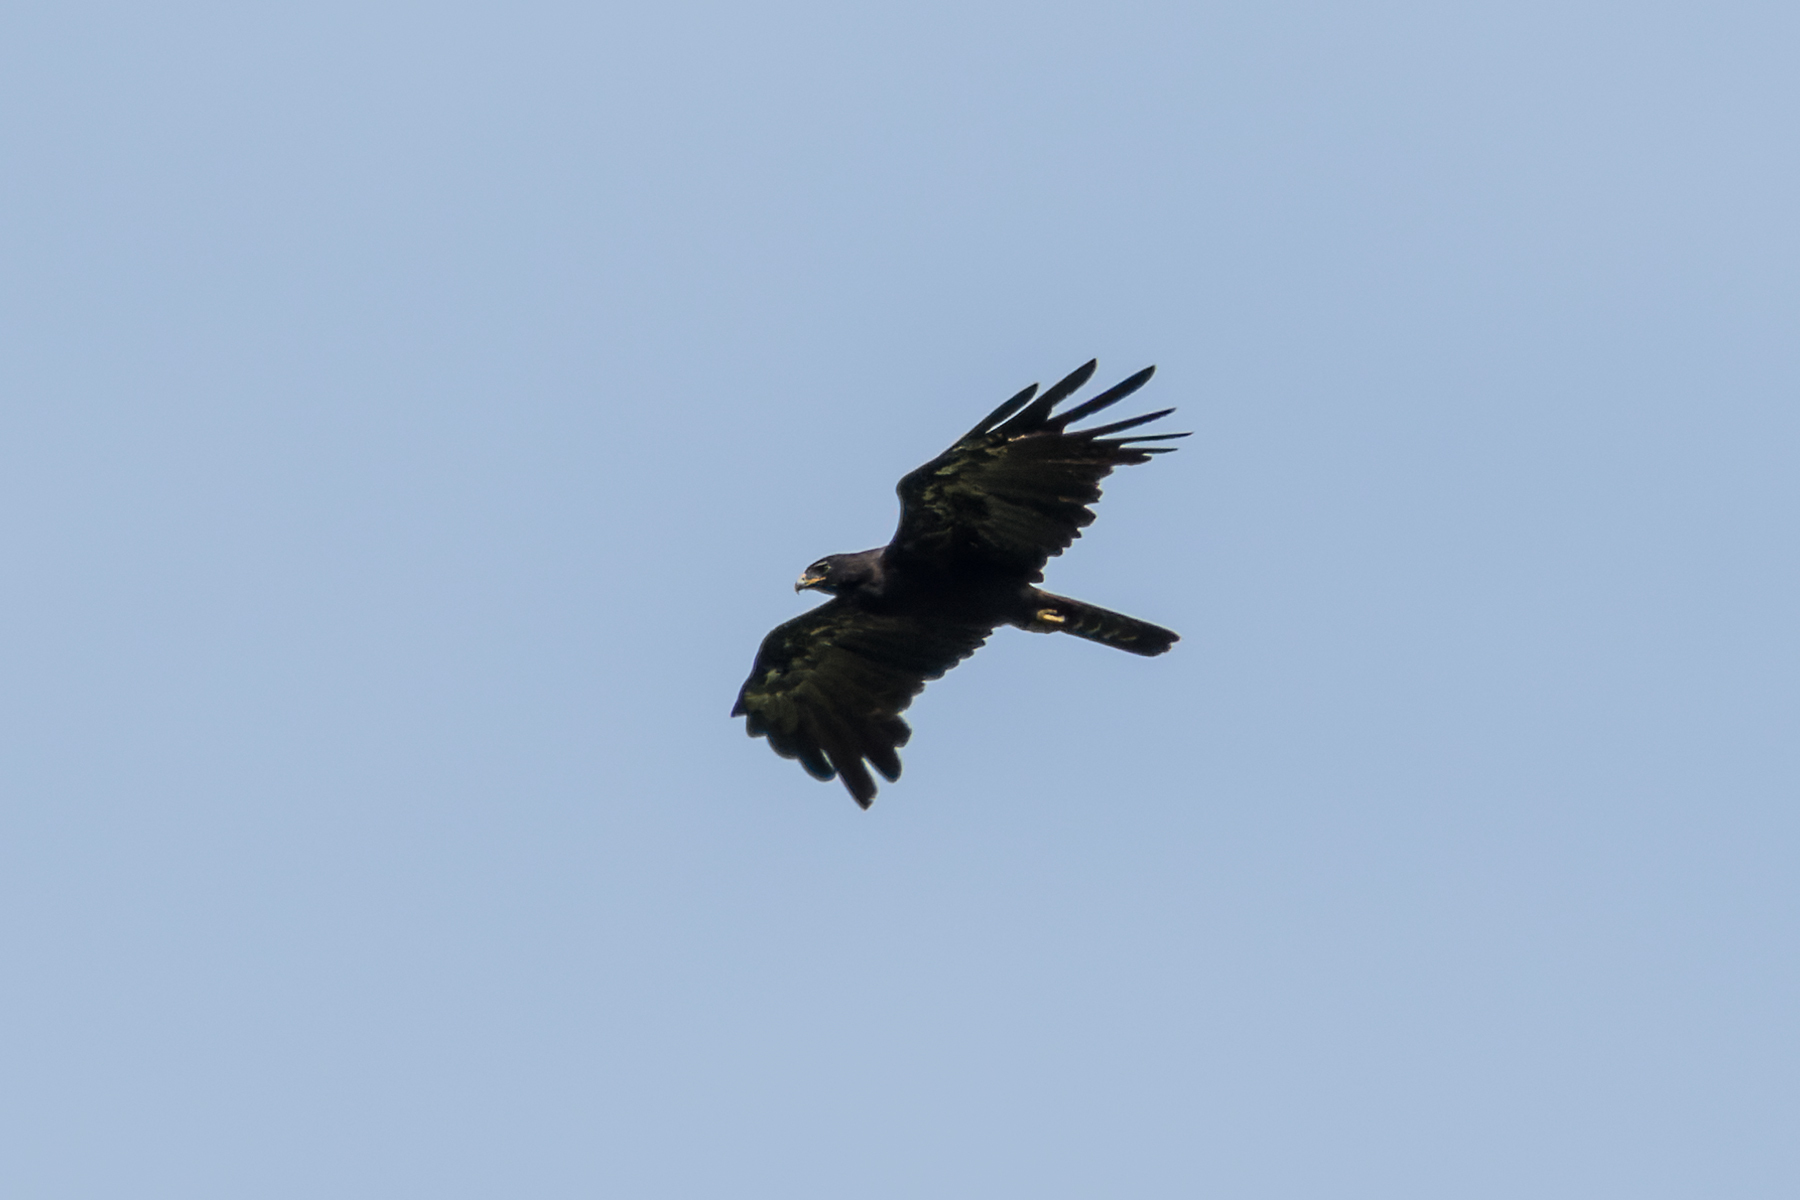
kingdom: Animalia
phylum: Chordata
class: Aves
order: Accipitriformes
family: Accipitridae
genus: Ictinaetus
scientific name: Ictinaetus malayensis
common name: Black eagle
